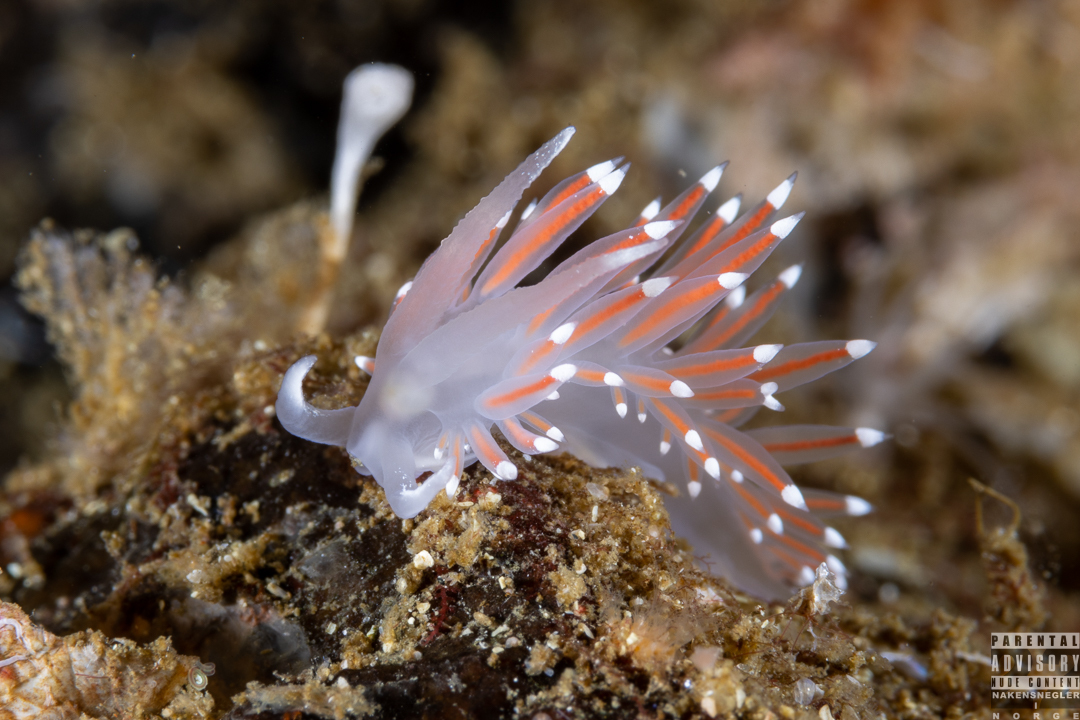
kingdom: Animalia
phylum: Mollusca
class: Gastropoda
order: Nudibranchia
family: Coryphellidae
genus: Coryphella
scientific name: Coryphella verrucosa
